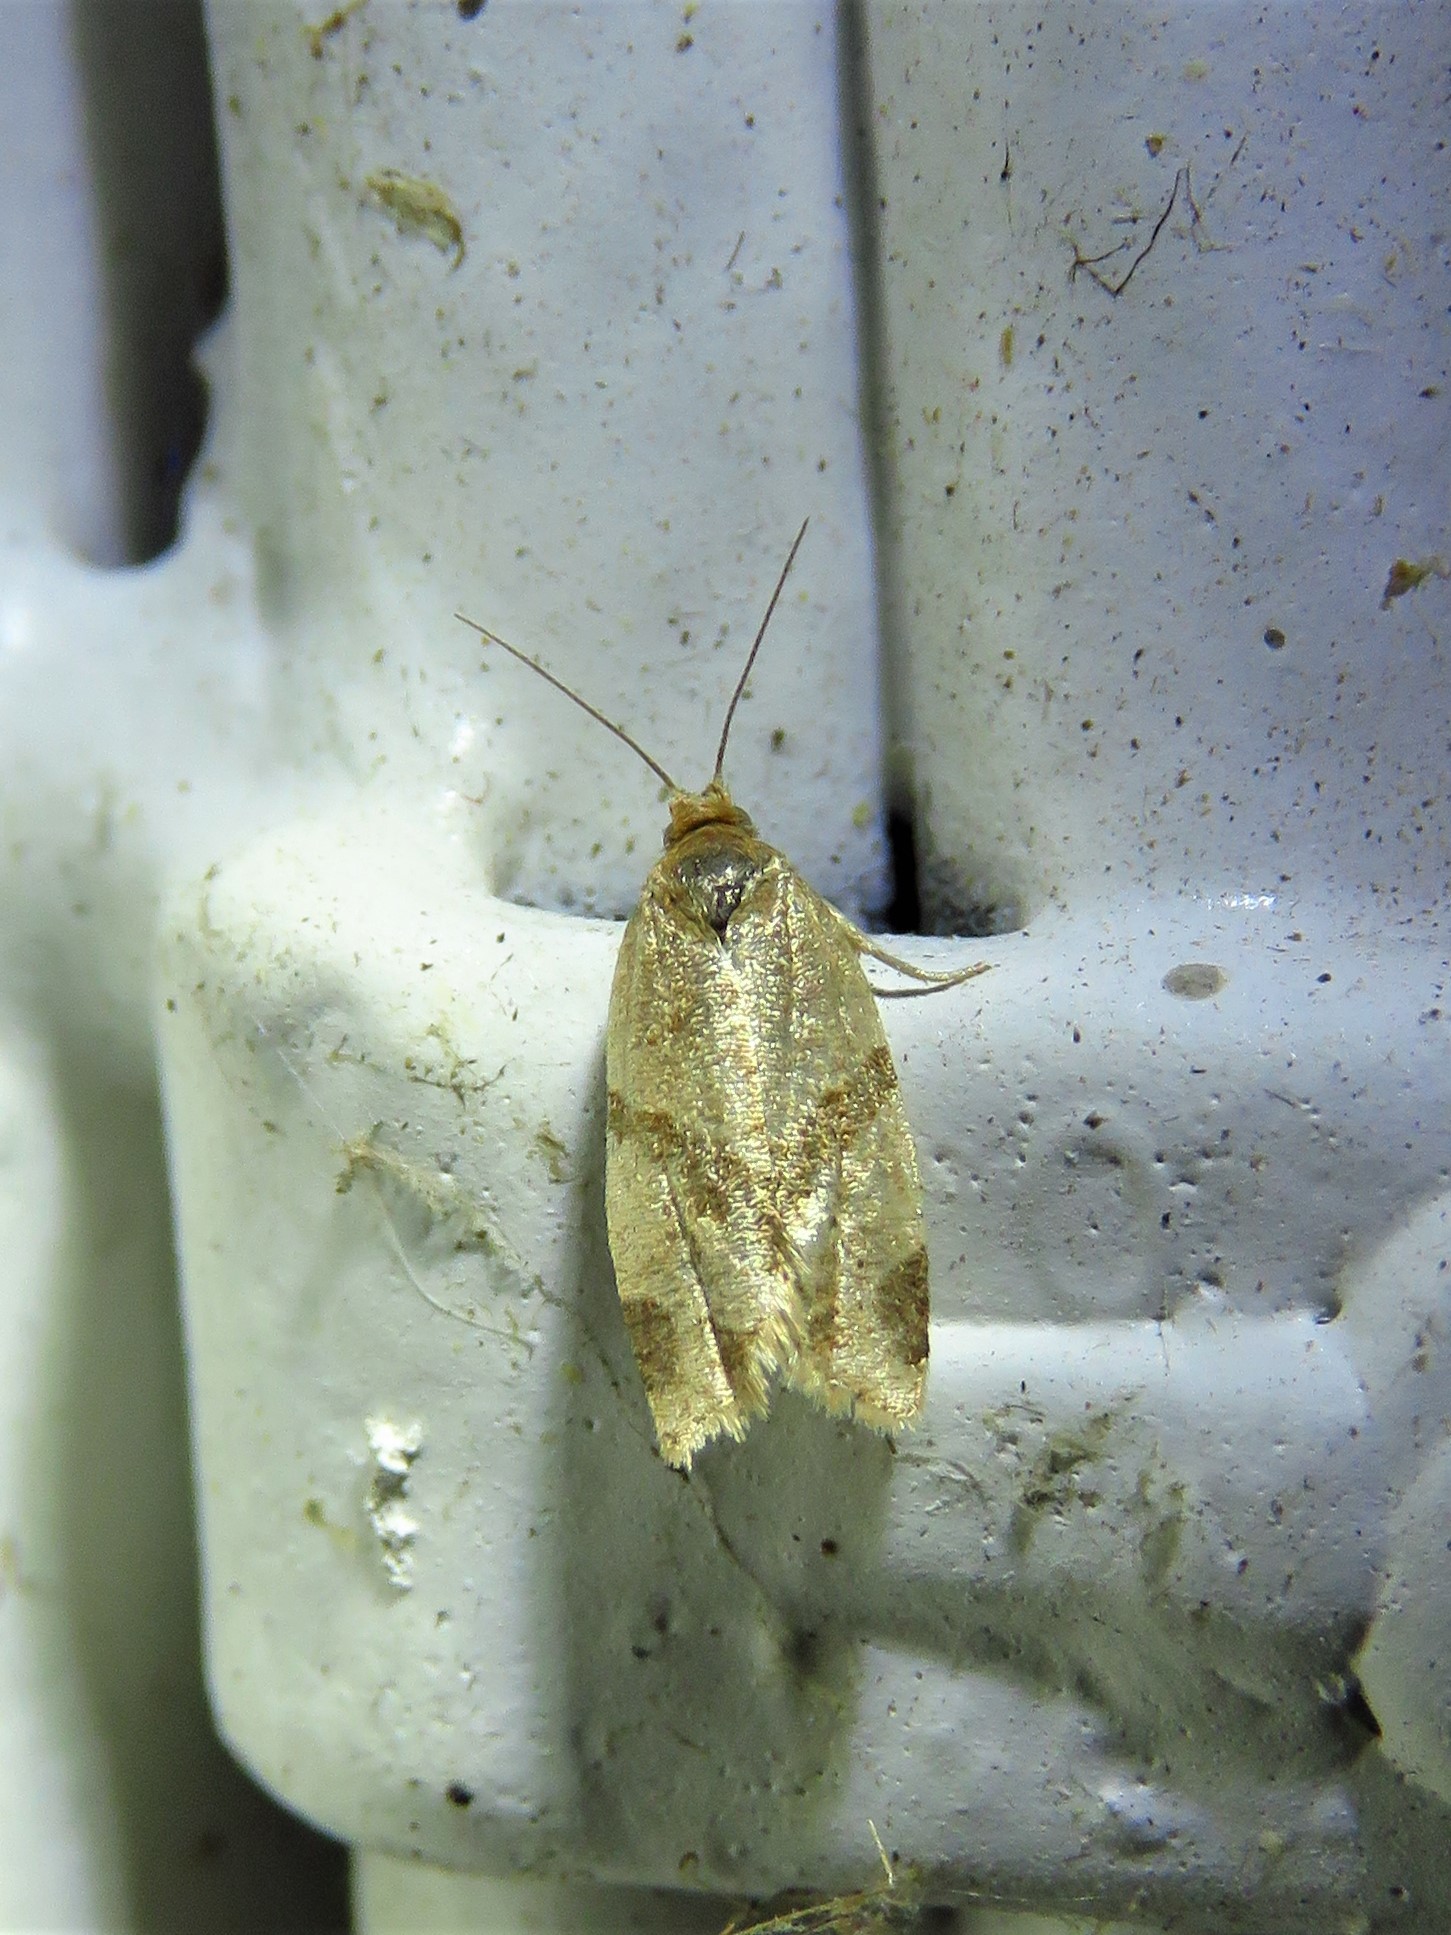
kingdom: Animalia
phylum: Arthropoda
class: Insecta
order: Lepidoptera
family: Tortricidae
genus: Clepsis
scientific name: Clepsis peritana
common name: Garden tortrix
